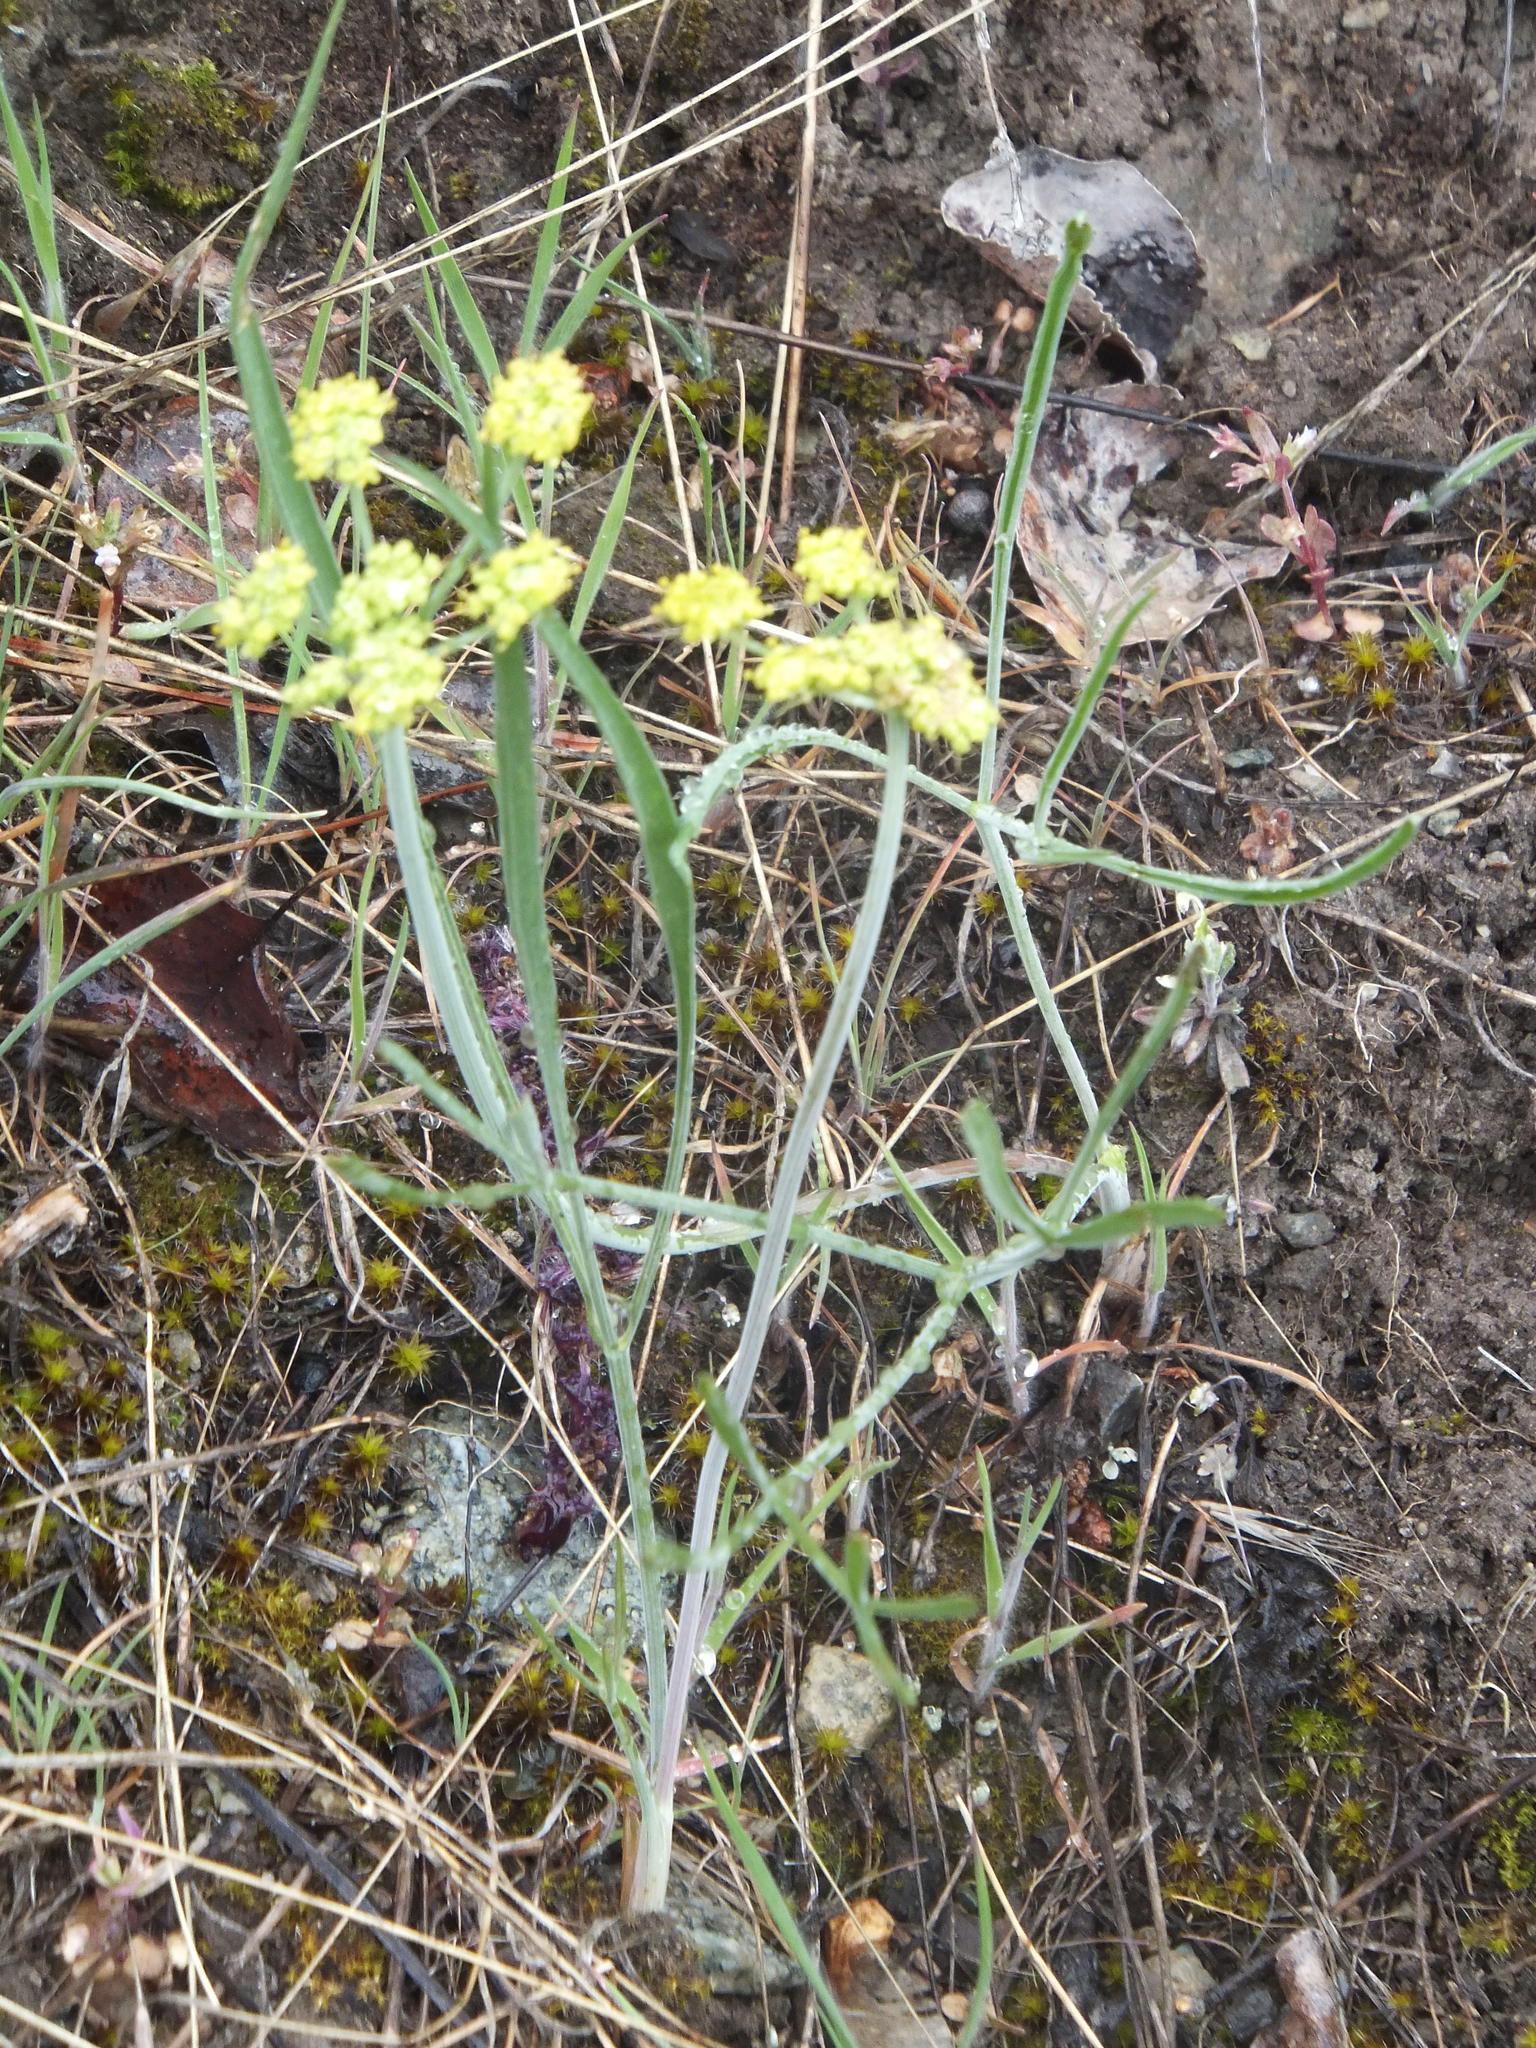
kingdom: Plantae
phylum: Tracheophyta
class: Magnoliopsida
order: Apiales
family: Apiaceae
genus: Lomatium
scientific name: Lomatium triternatum
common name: Ternate lomatium
